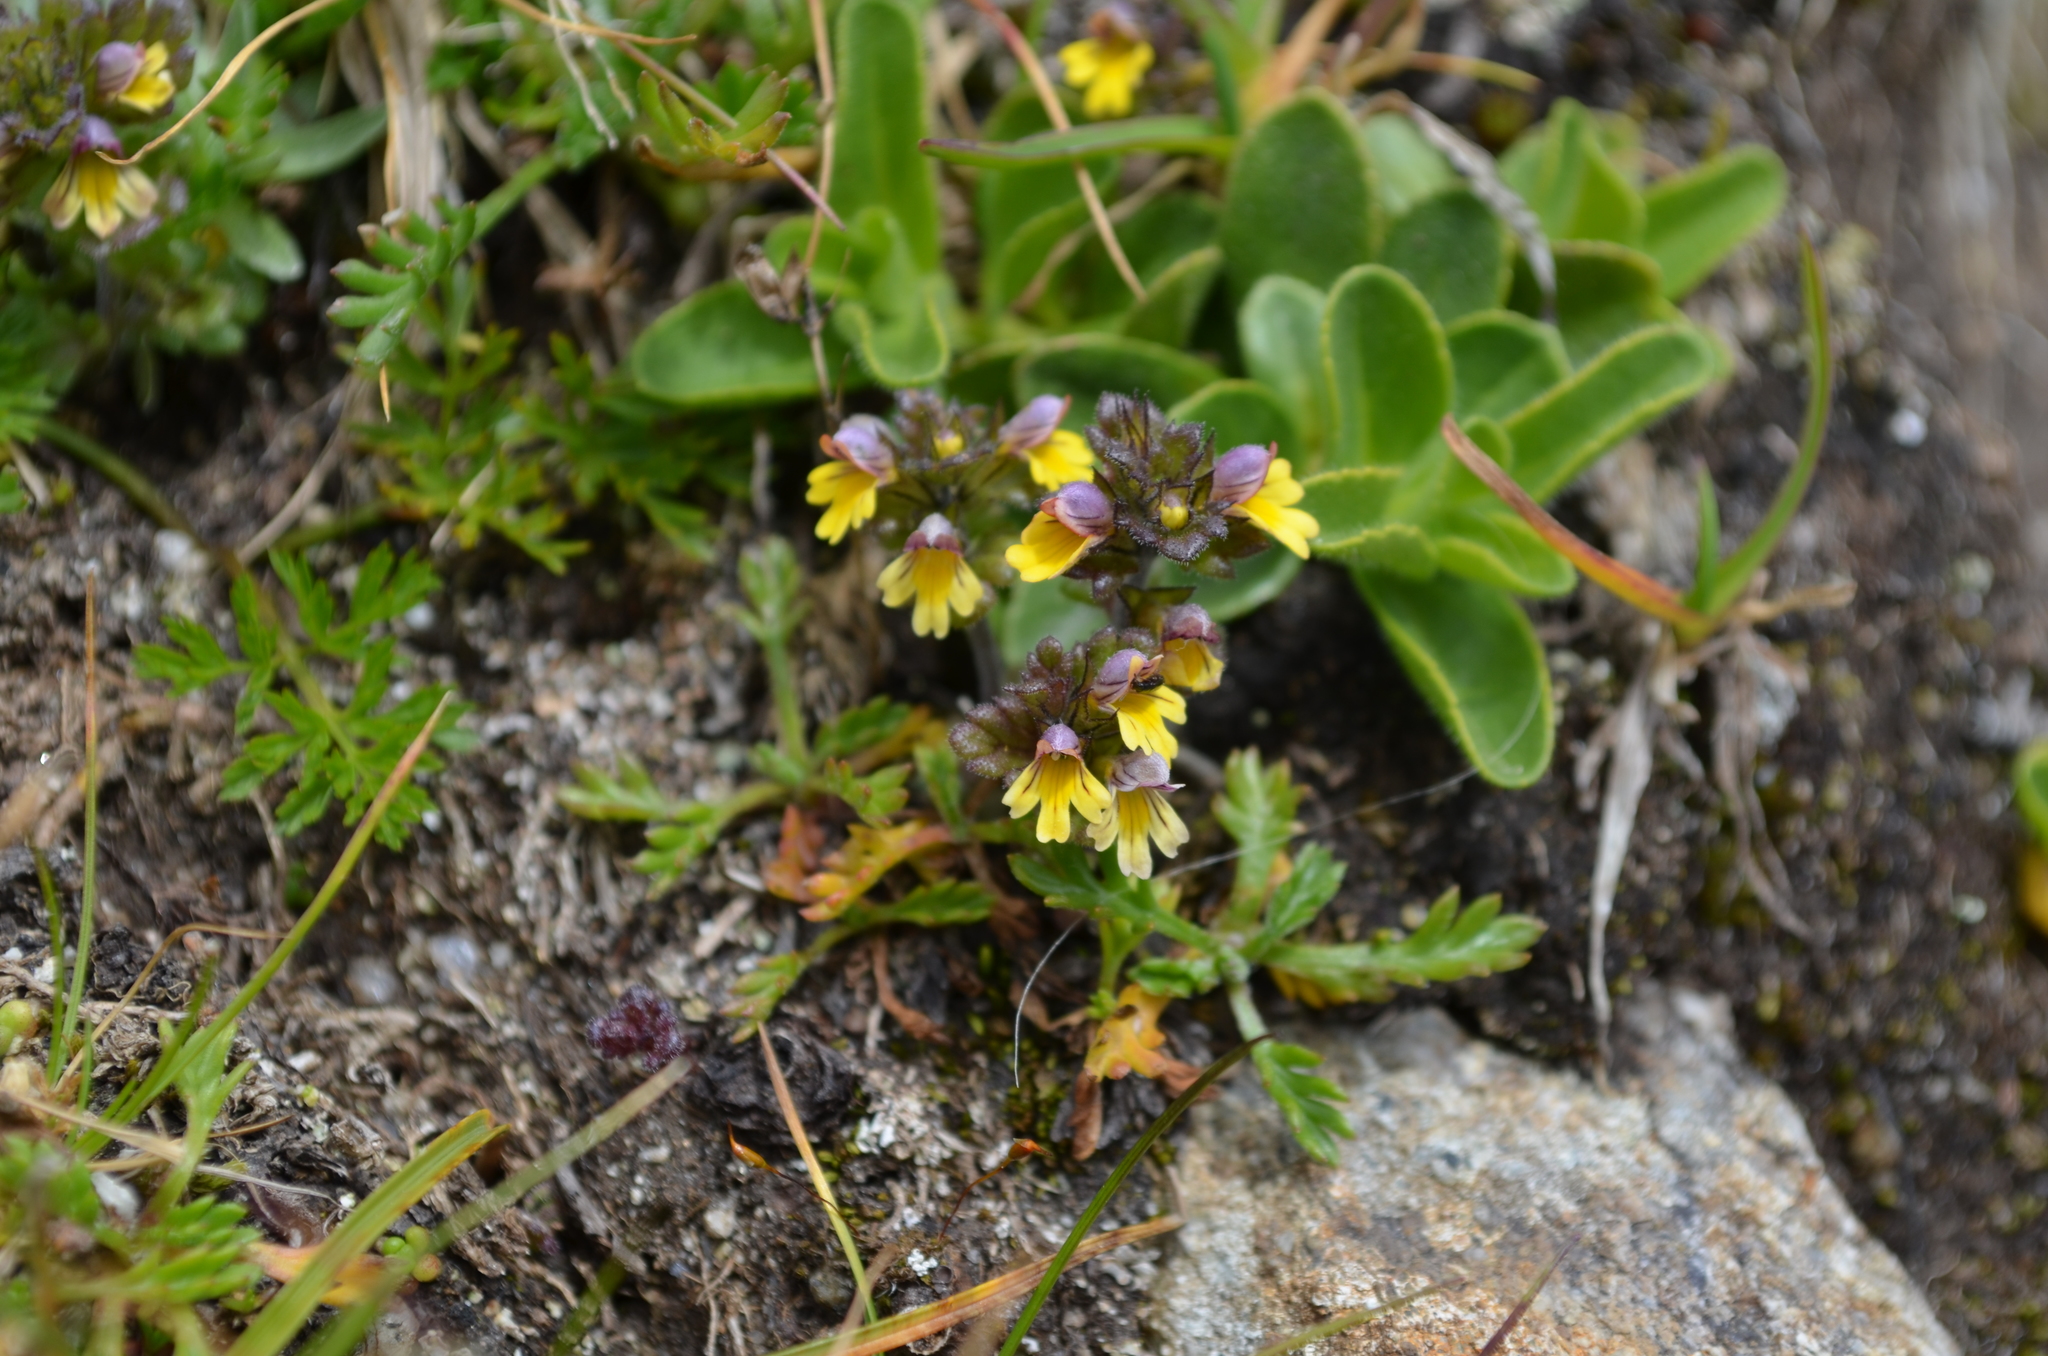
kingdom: Plantae
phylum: Tracheophyta
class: Magnoliopsida
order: Lamiales
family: Orobanchaceae
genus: Euphrasia
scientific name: Euphrasia minima
